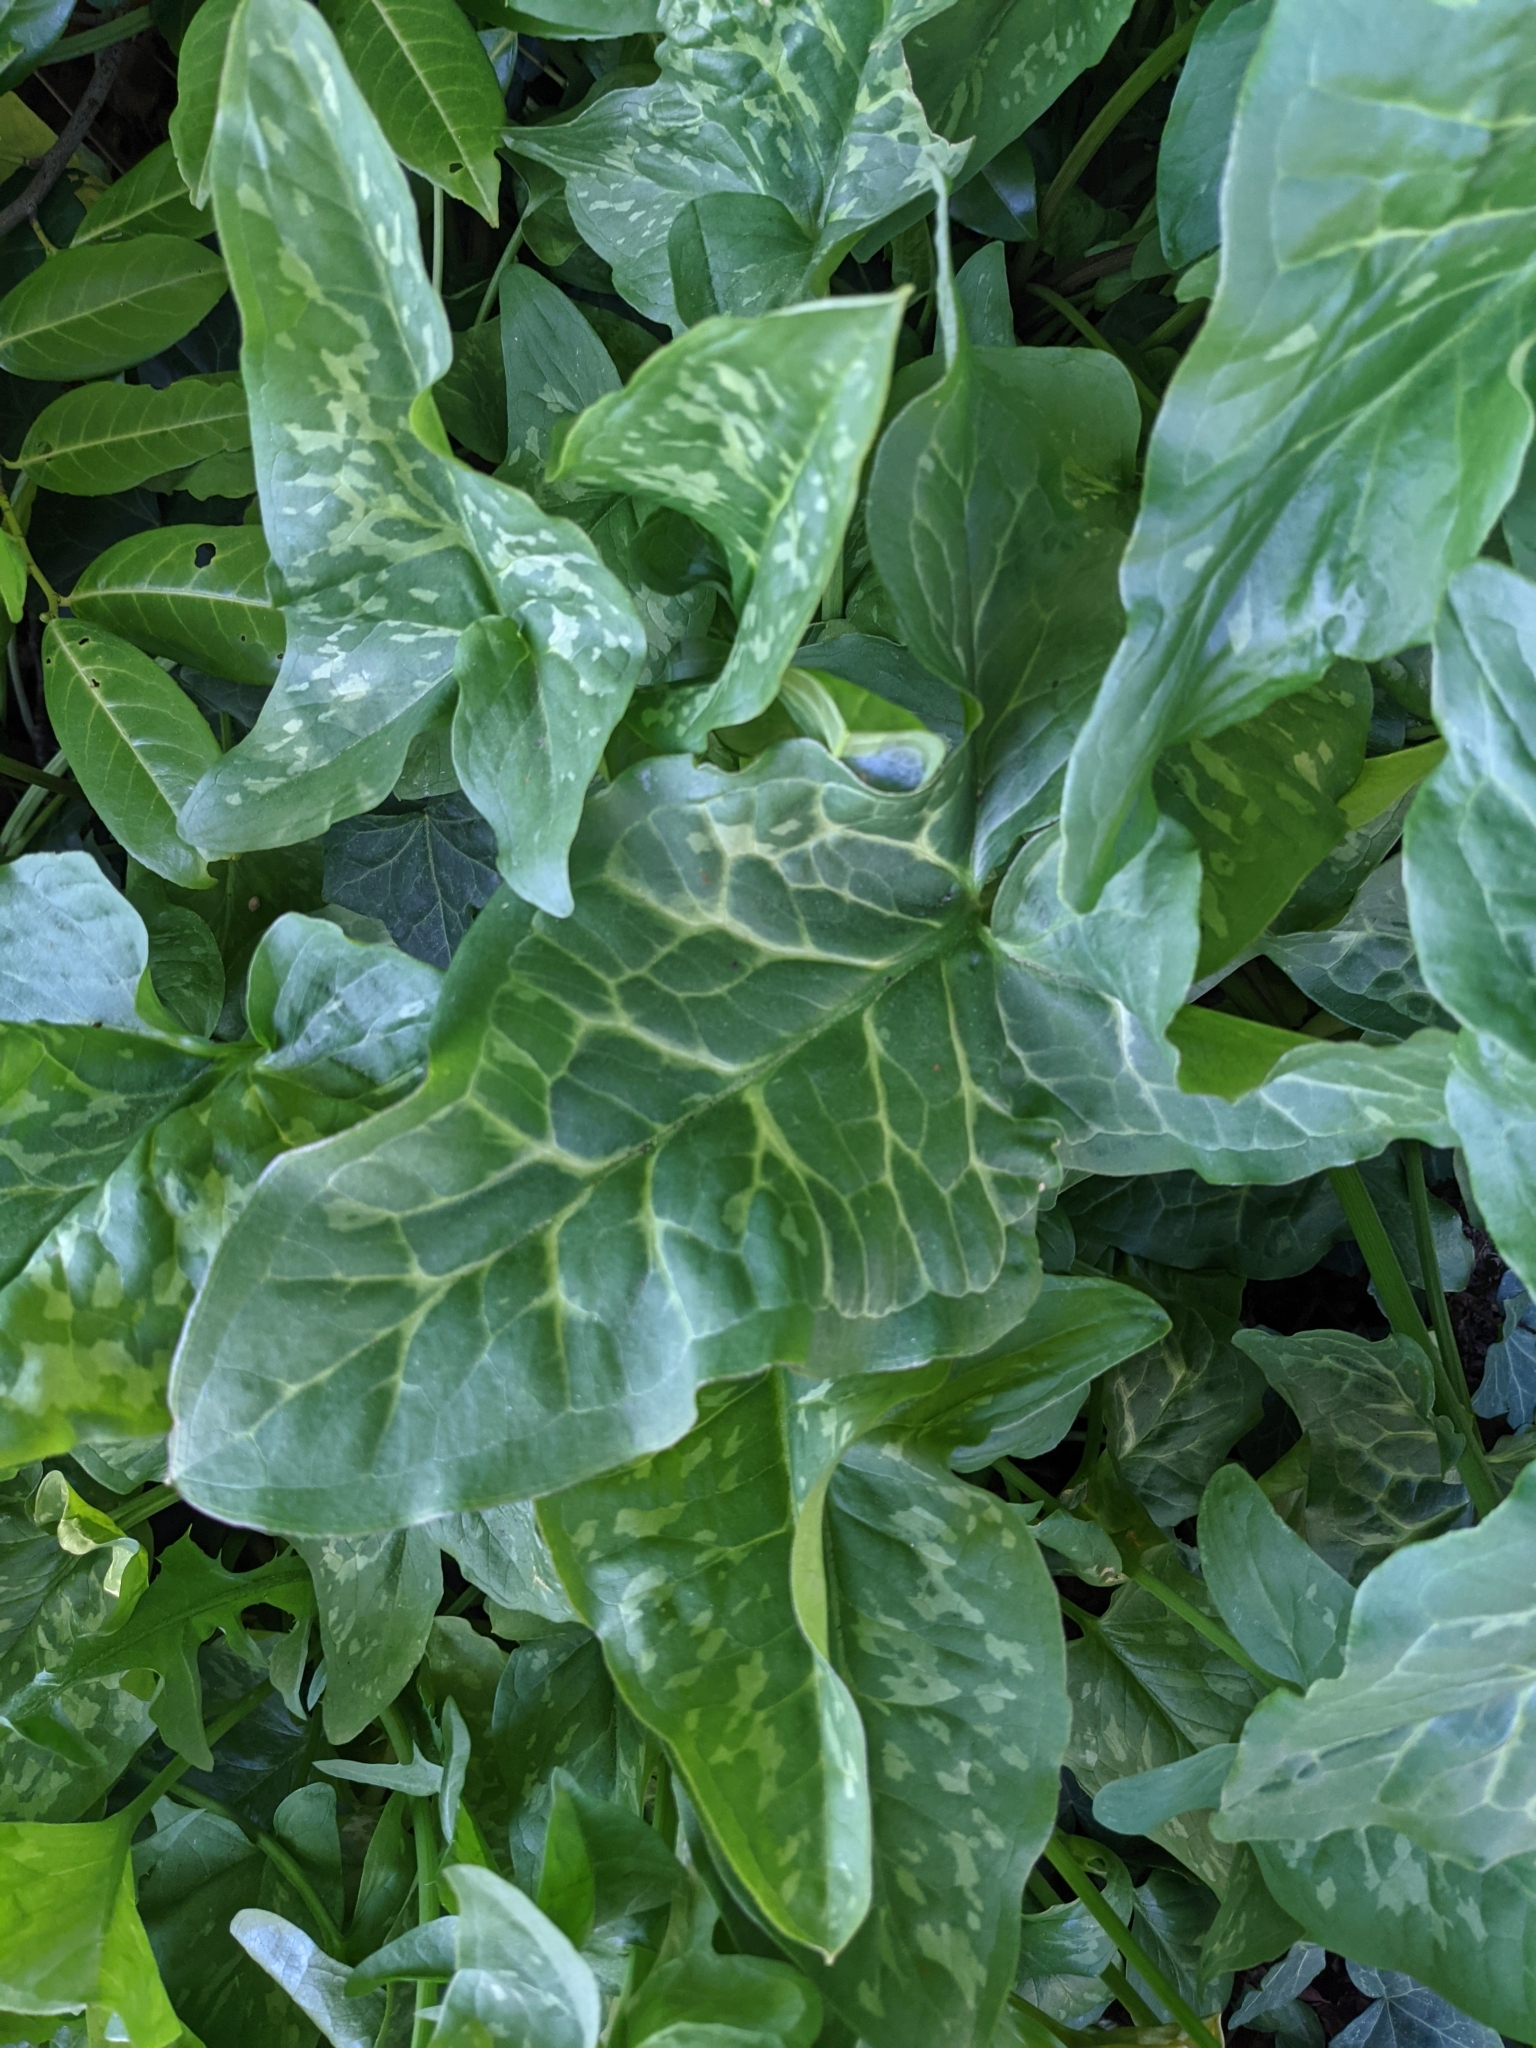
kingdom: Plantae
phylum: Tracheophyta
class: Liliopsida
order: Alismatales
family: Araceae
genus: Arum
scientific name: Arum italicum
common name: Italian lords-and-ladies
